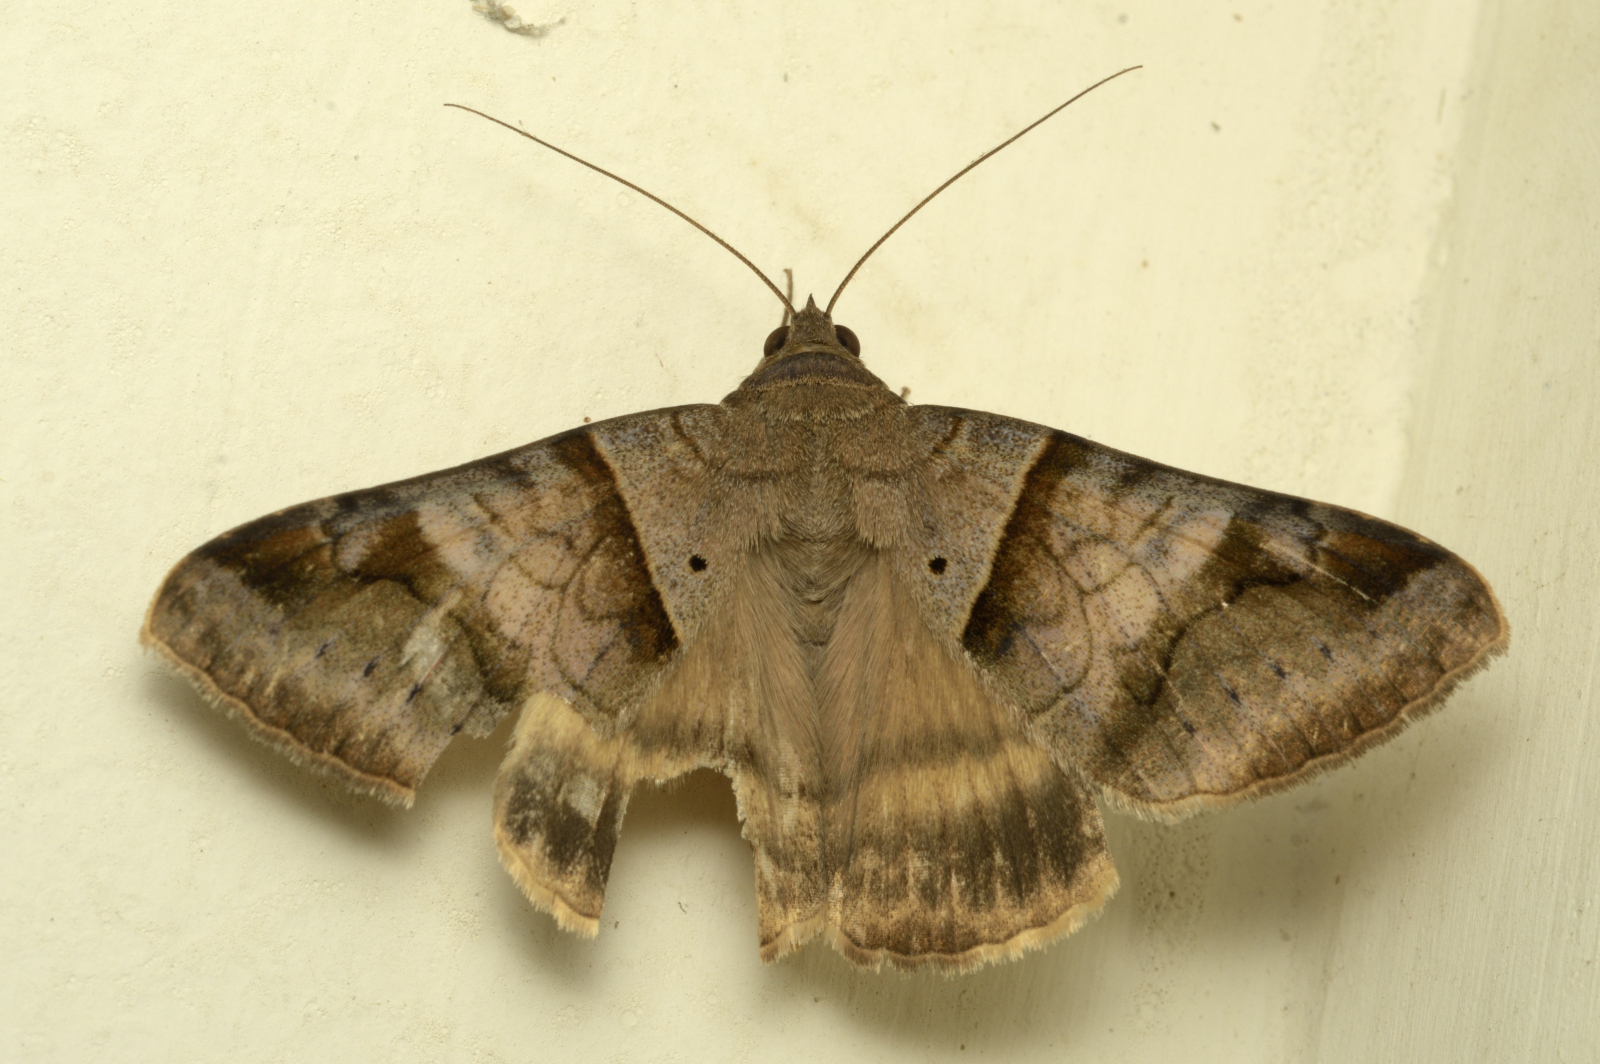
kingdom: Animalia
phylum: Arthropoda
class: Insecta
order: Lepidoptera
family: Erebidae
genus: Mocis
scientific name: Mocis undata
